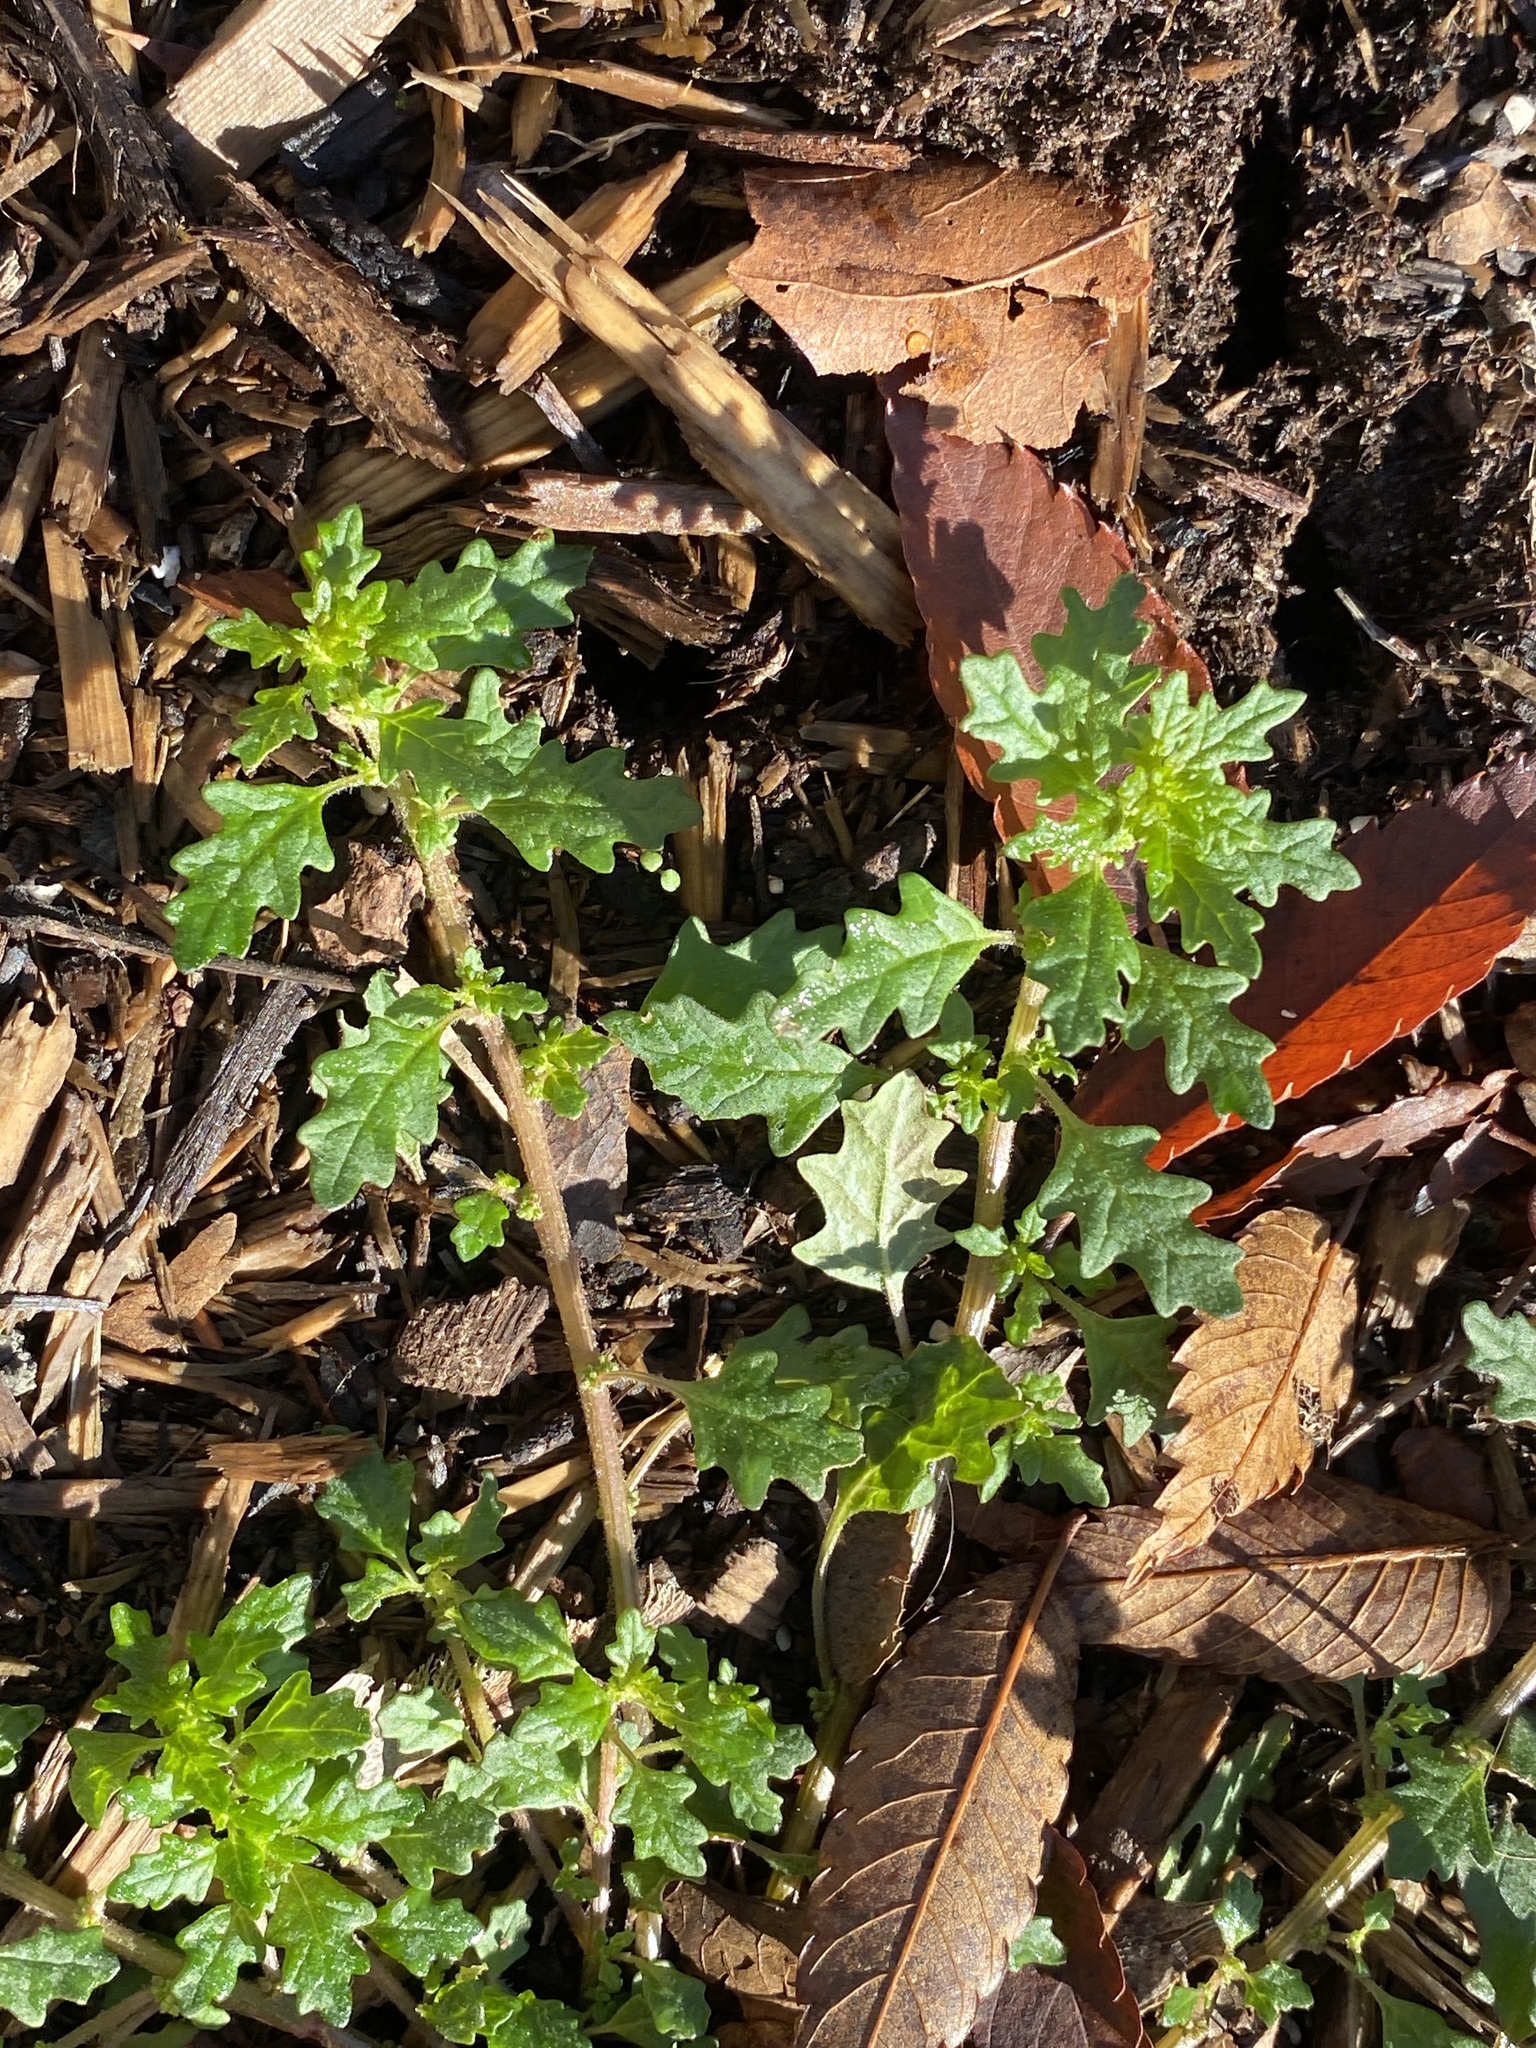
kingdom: Plantae
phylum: Tracheophyta
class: Magnoliopsida
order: Caryophyllales
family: Amaranthaceae
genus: Dysphania
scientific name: Dysphania pumilio
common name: Clammy goosefoot
